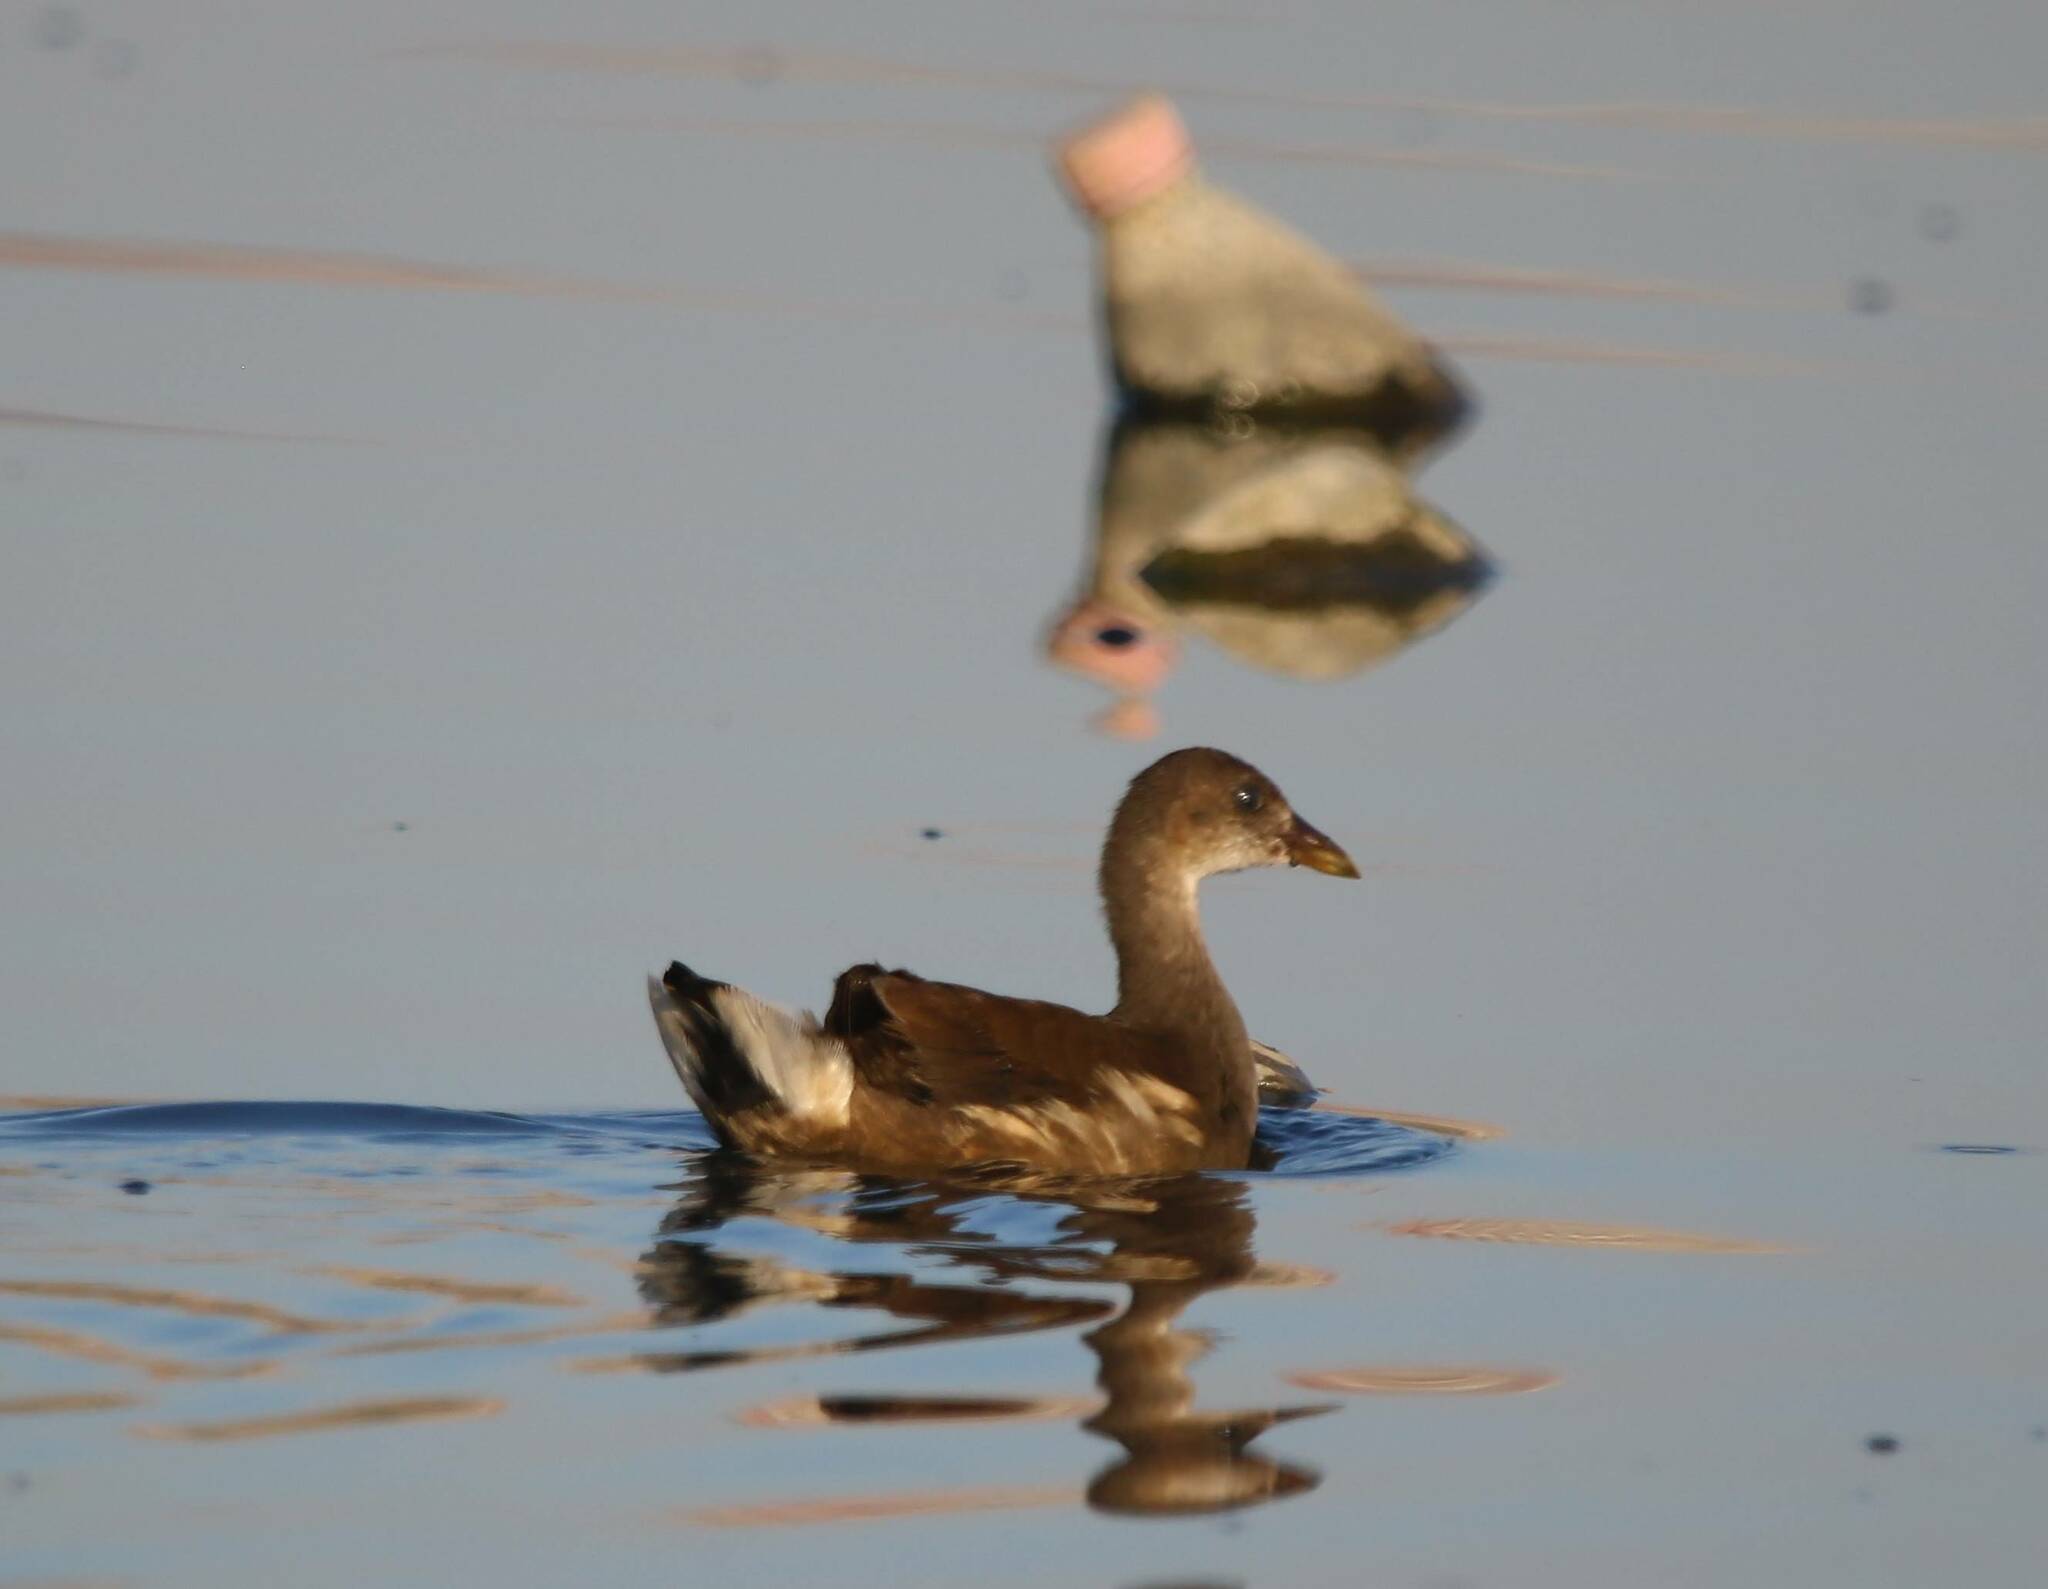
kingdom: Animalia
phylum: Chordata
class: Aves
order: Gruiformes
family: Rallidae
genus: Gallinula
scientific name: Gallinula chloropus
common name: Common moorhen
